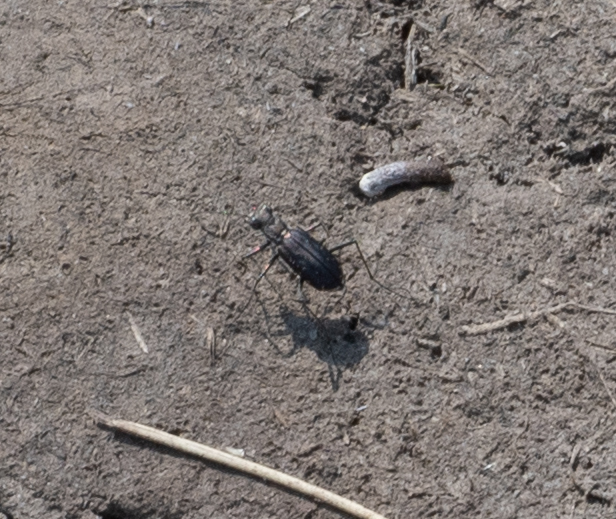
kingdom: Animalia
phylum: Arthropoda
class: Insecta
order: Coleoptera
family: Carabidae
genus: Cicindela
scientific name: Cicindela punctulata
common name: Punctured tiger beetle
